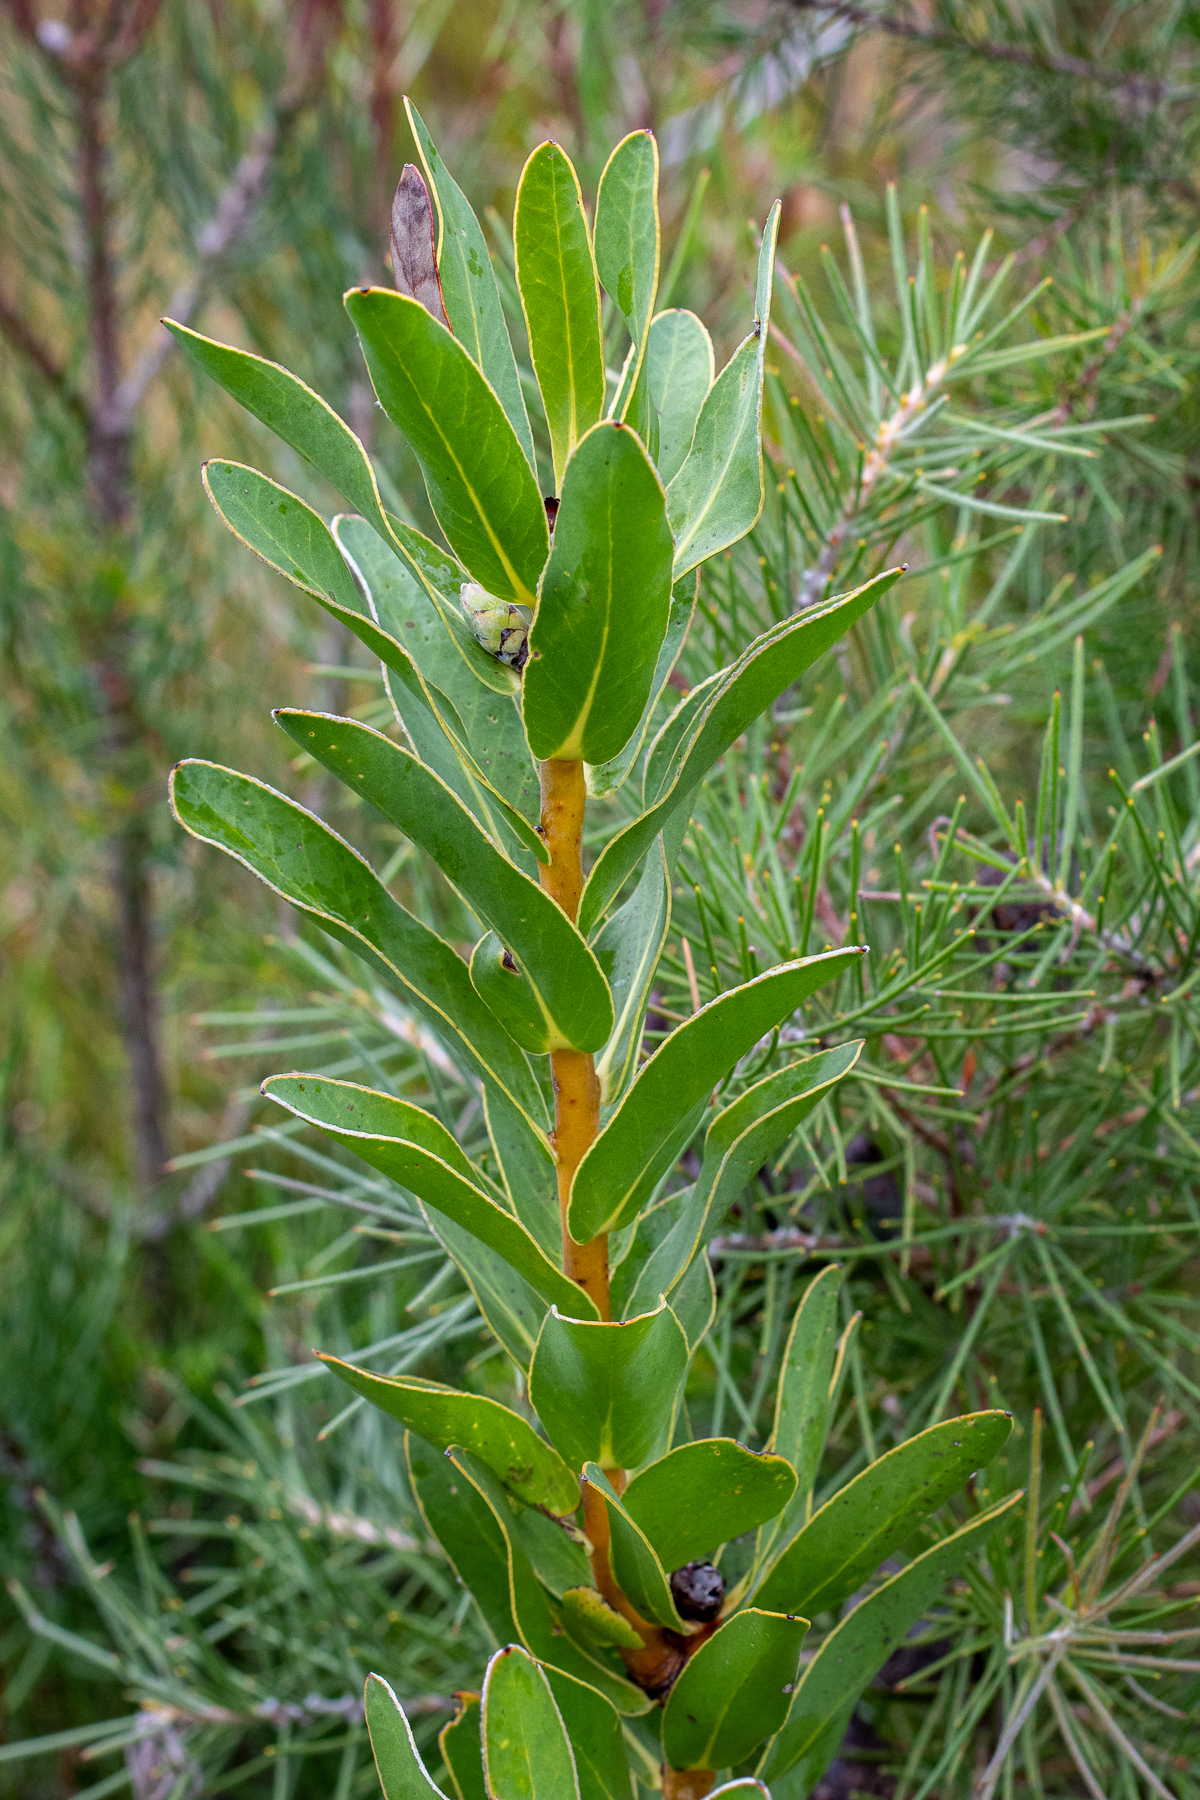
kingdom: Plantae
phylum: Tracheophyta
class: Magnoliopsida
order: Proteales
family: Proteaceae
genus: Protea
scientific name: Protea compacta
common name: Bot river protea
